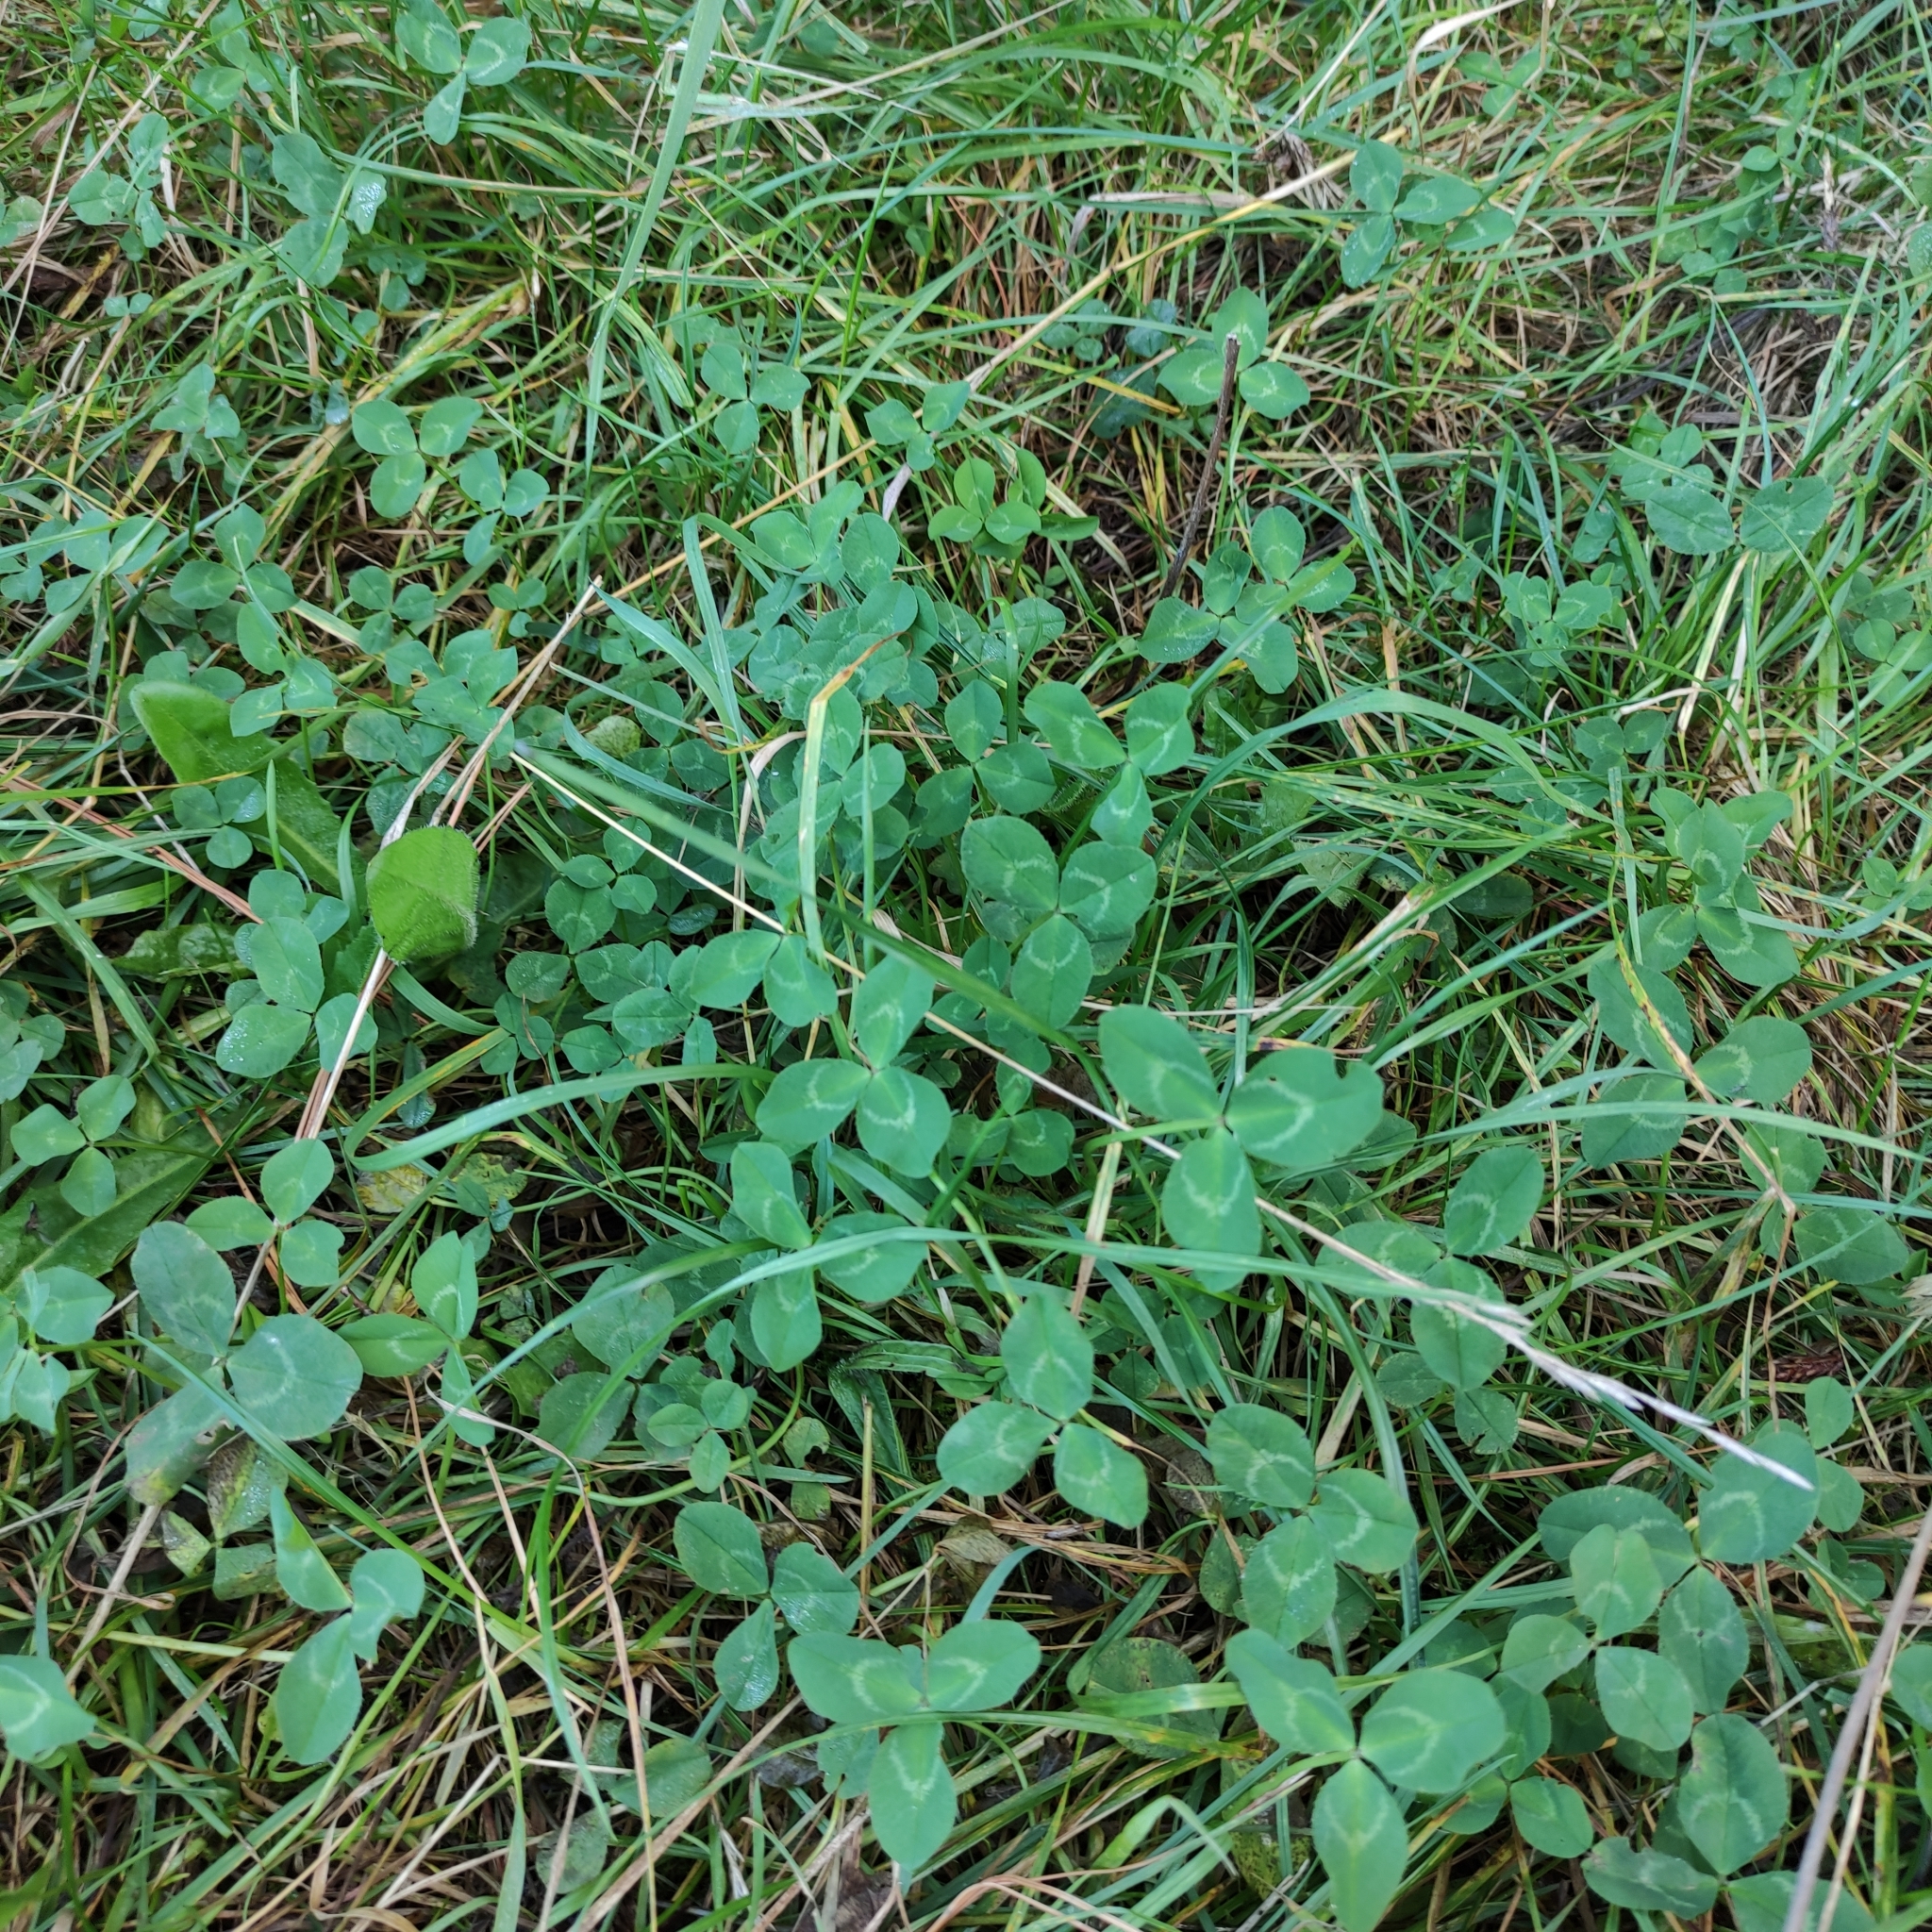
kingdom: Plantae
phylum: Tracheophyta
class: Magnoliopsida
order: Fabales
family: Fabaceae
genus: Trifolium
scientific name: Trifolium repens
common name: White clover
